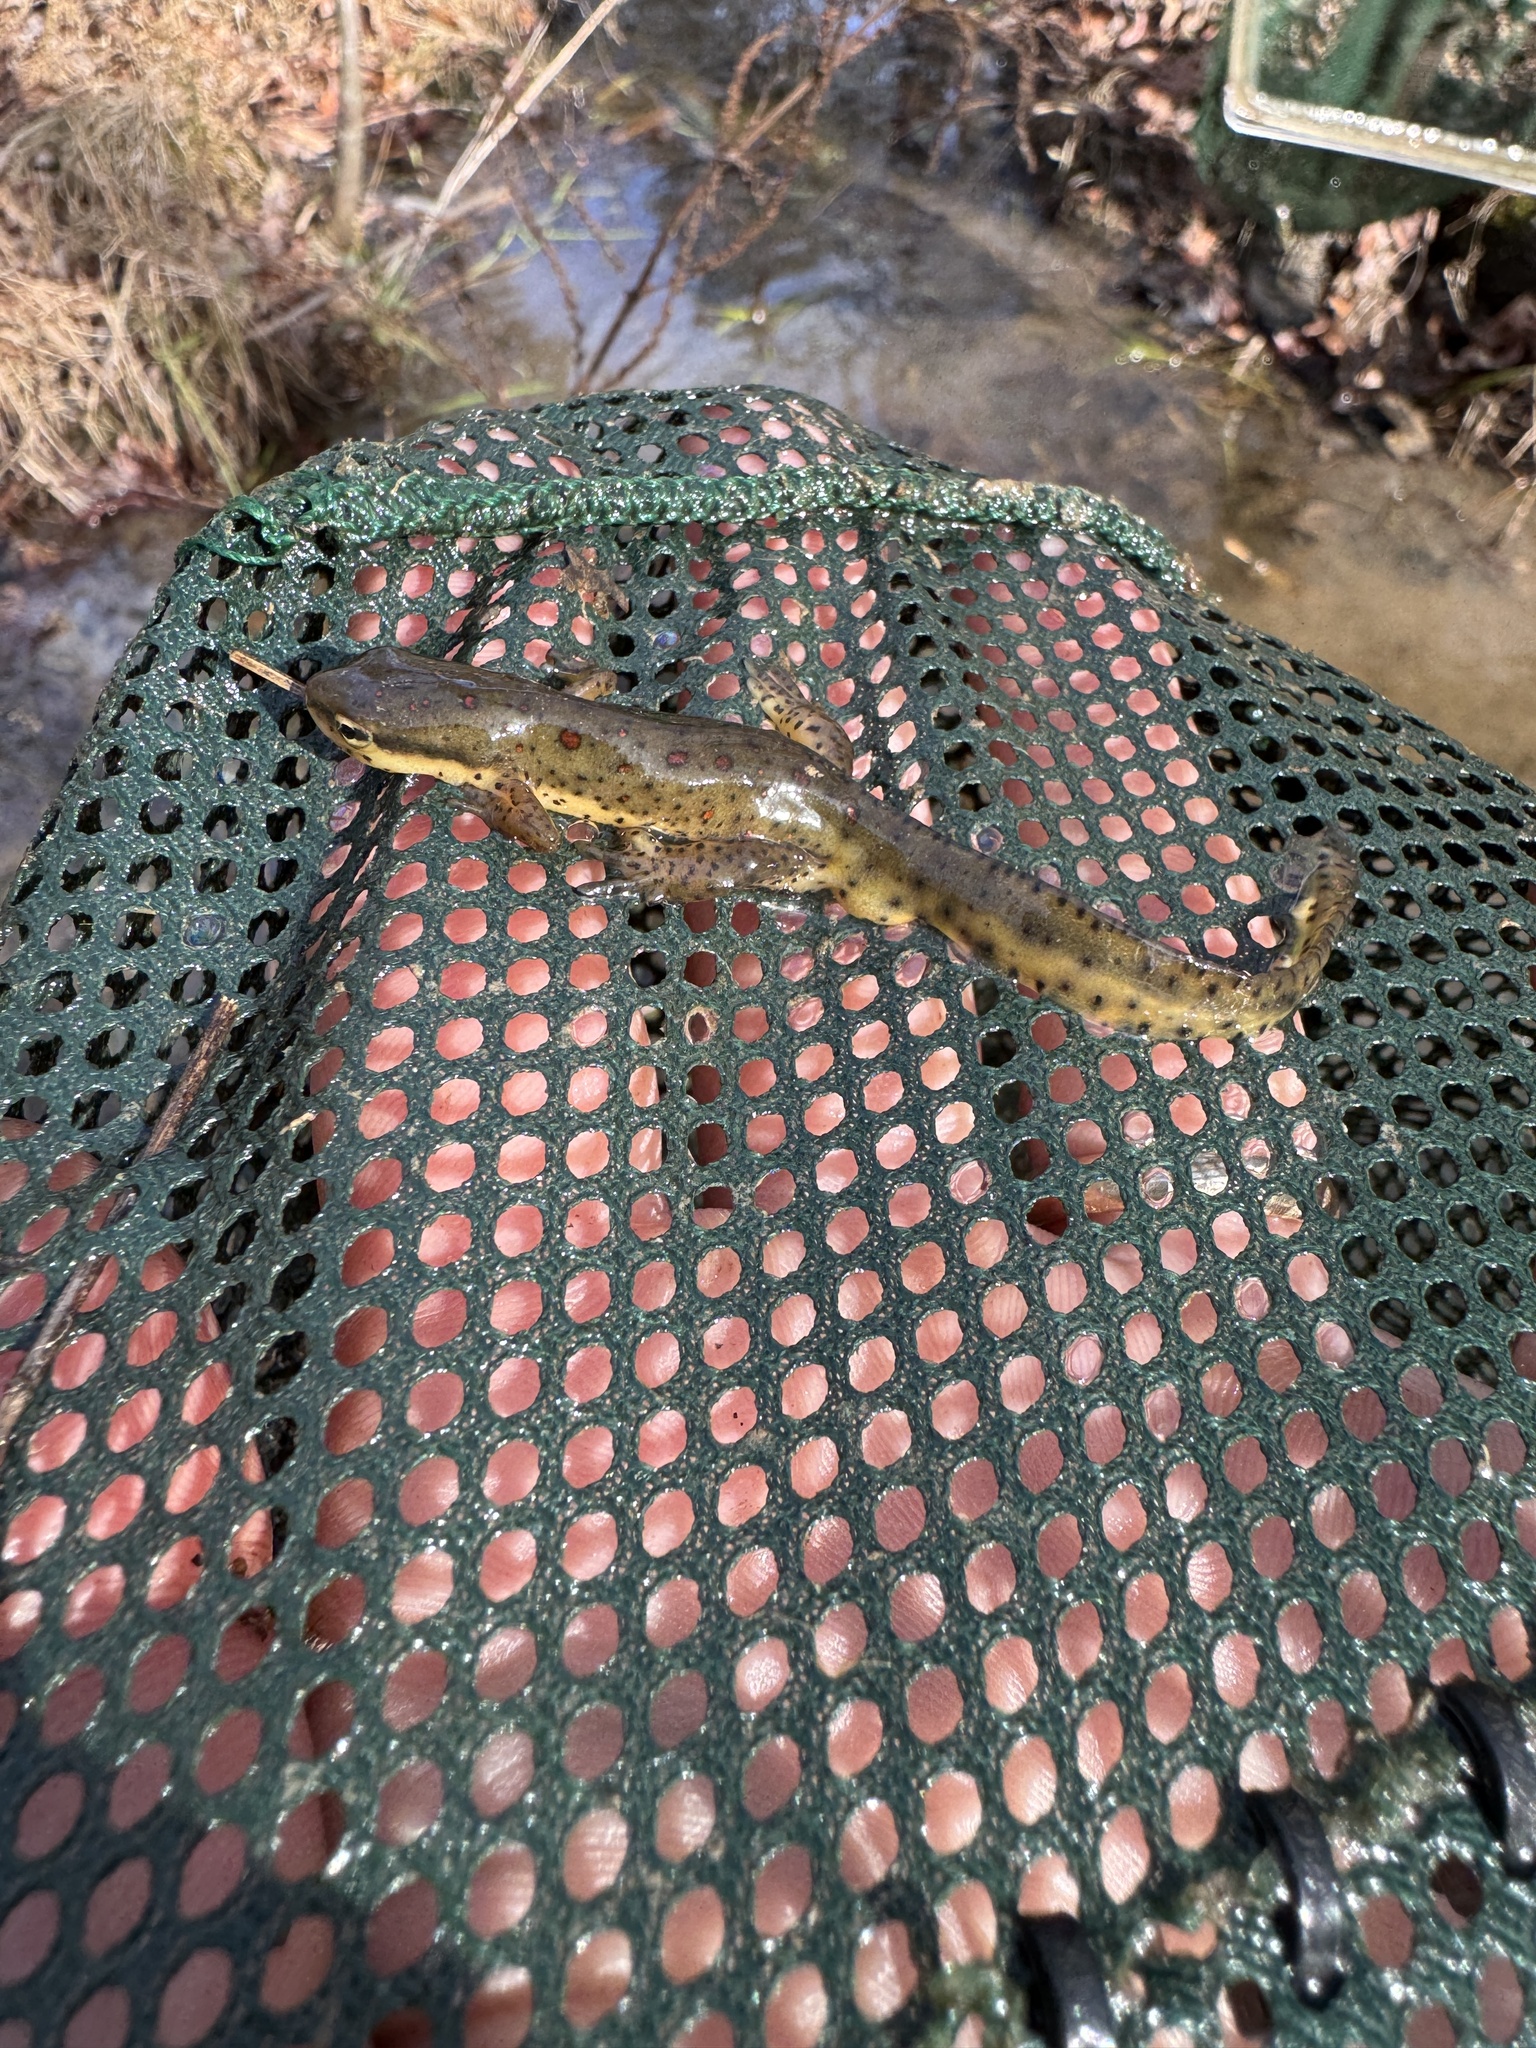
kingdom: Animalia
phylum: Chordata
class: Amphibia
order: Caudata
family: Salamandridae
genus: Notophthalmus
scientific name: Notophthalmus viridescens
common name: Eastern newt
